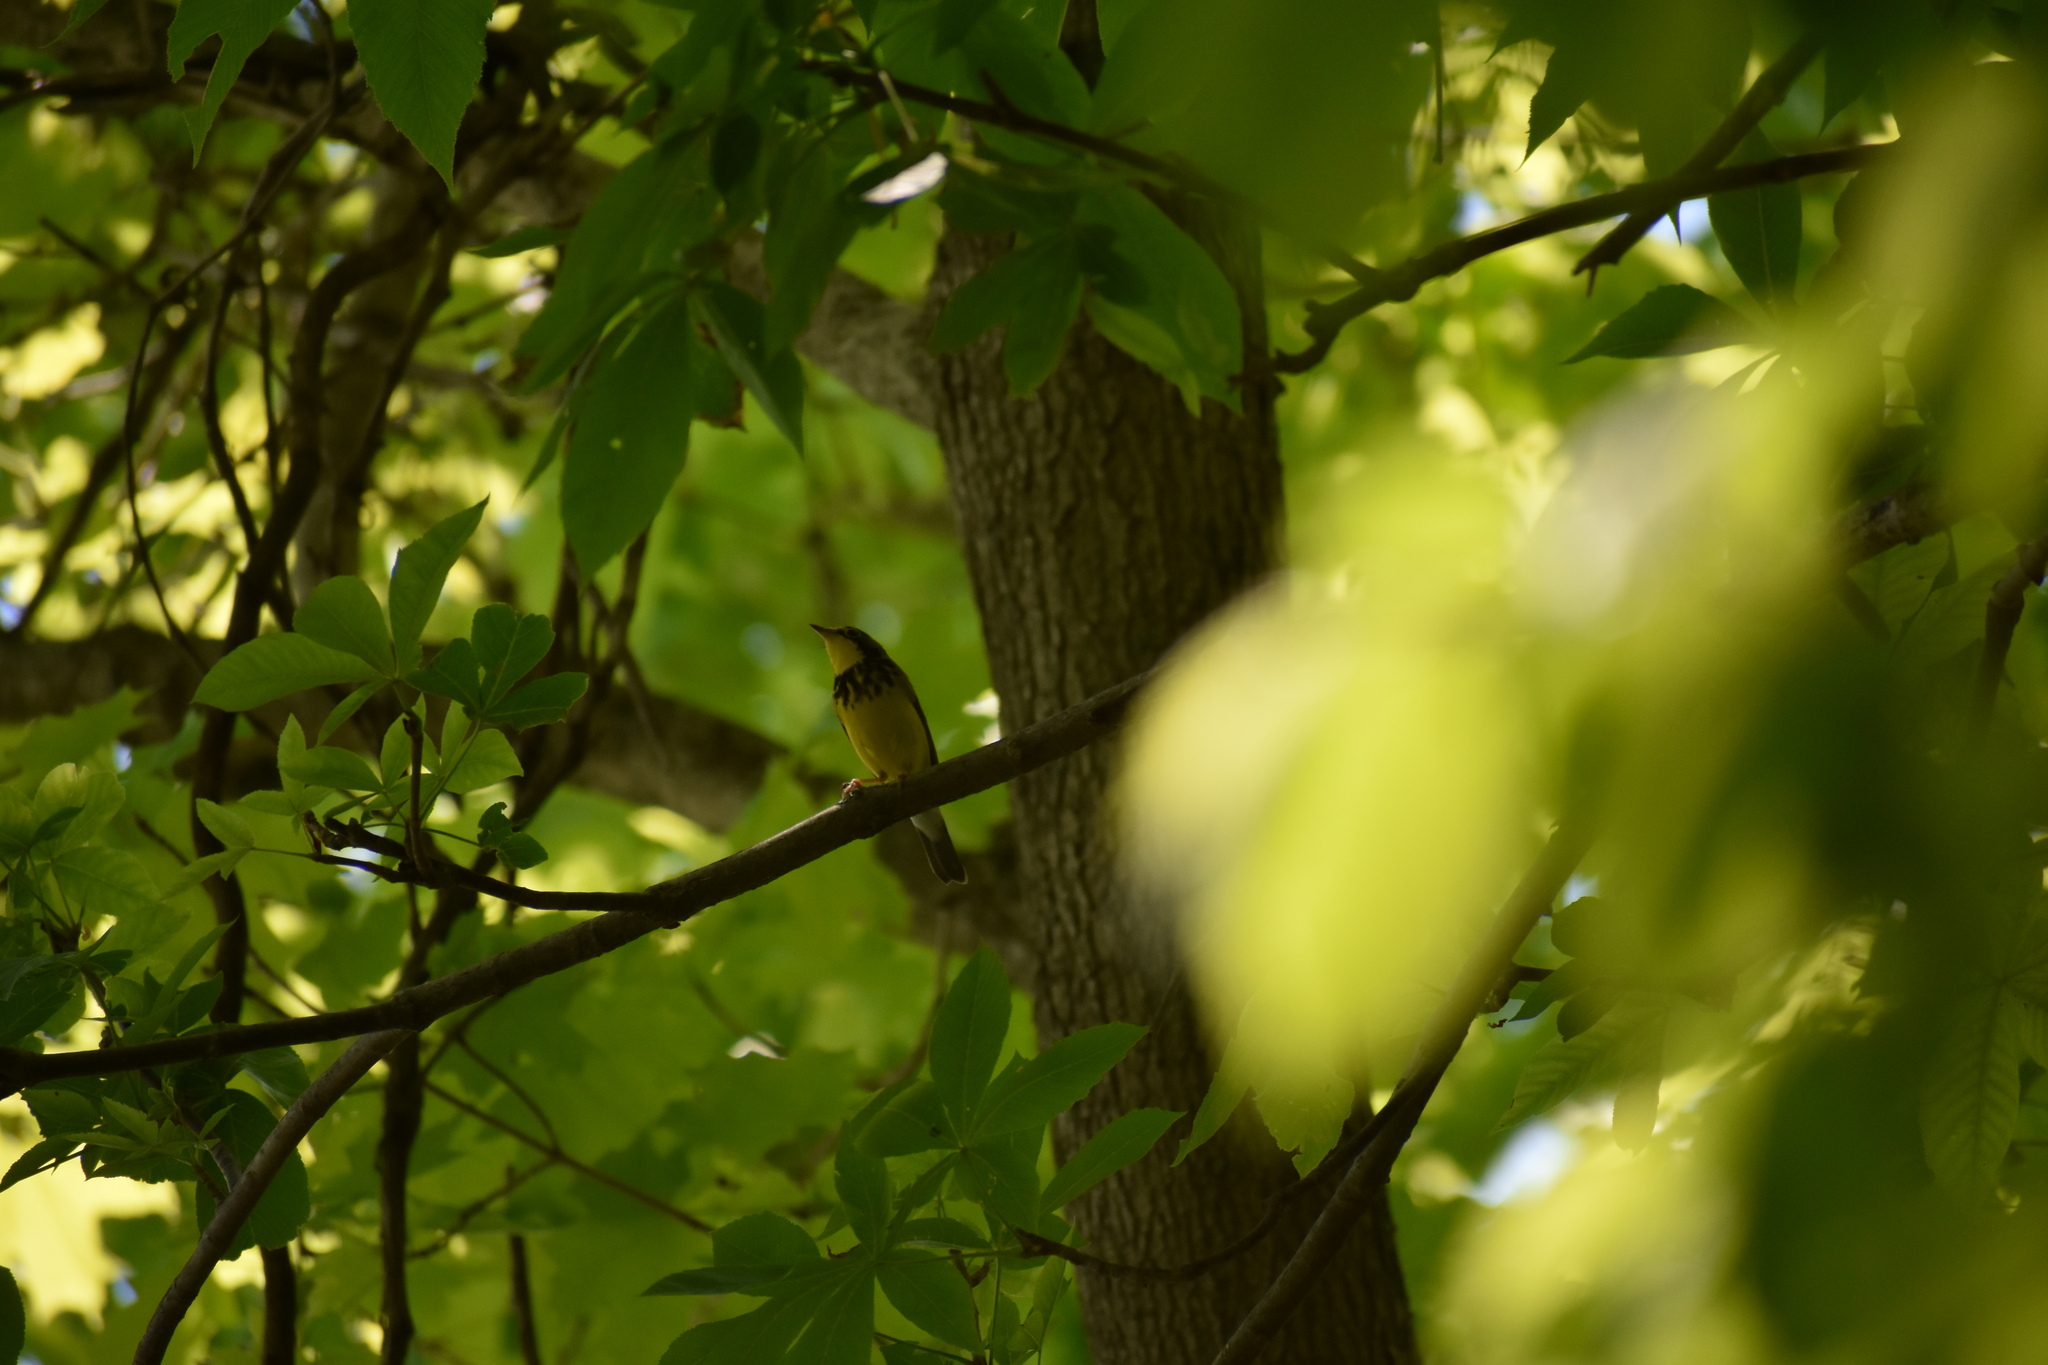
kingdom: Animalia
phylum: Chordata
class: Aves
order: Passeriformes
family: Parulidae
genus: Cardellina
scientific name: Cardellina canadensis
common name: Canada warbler
